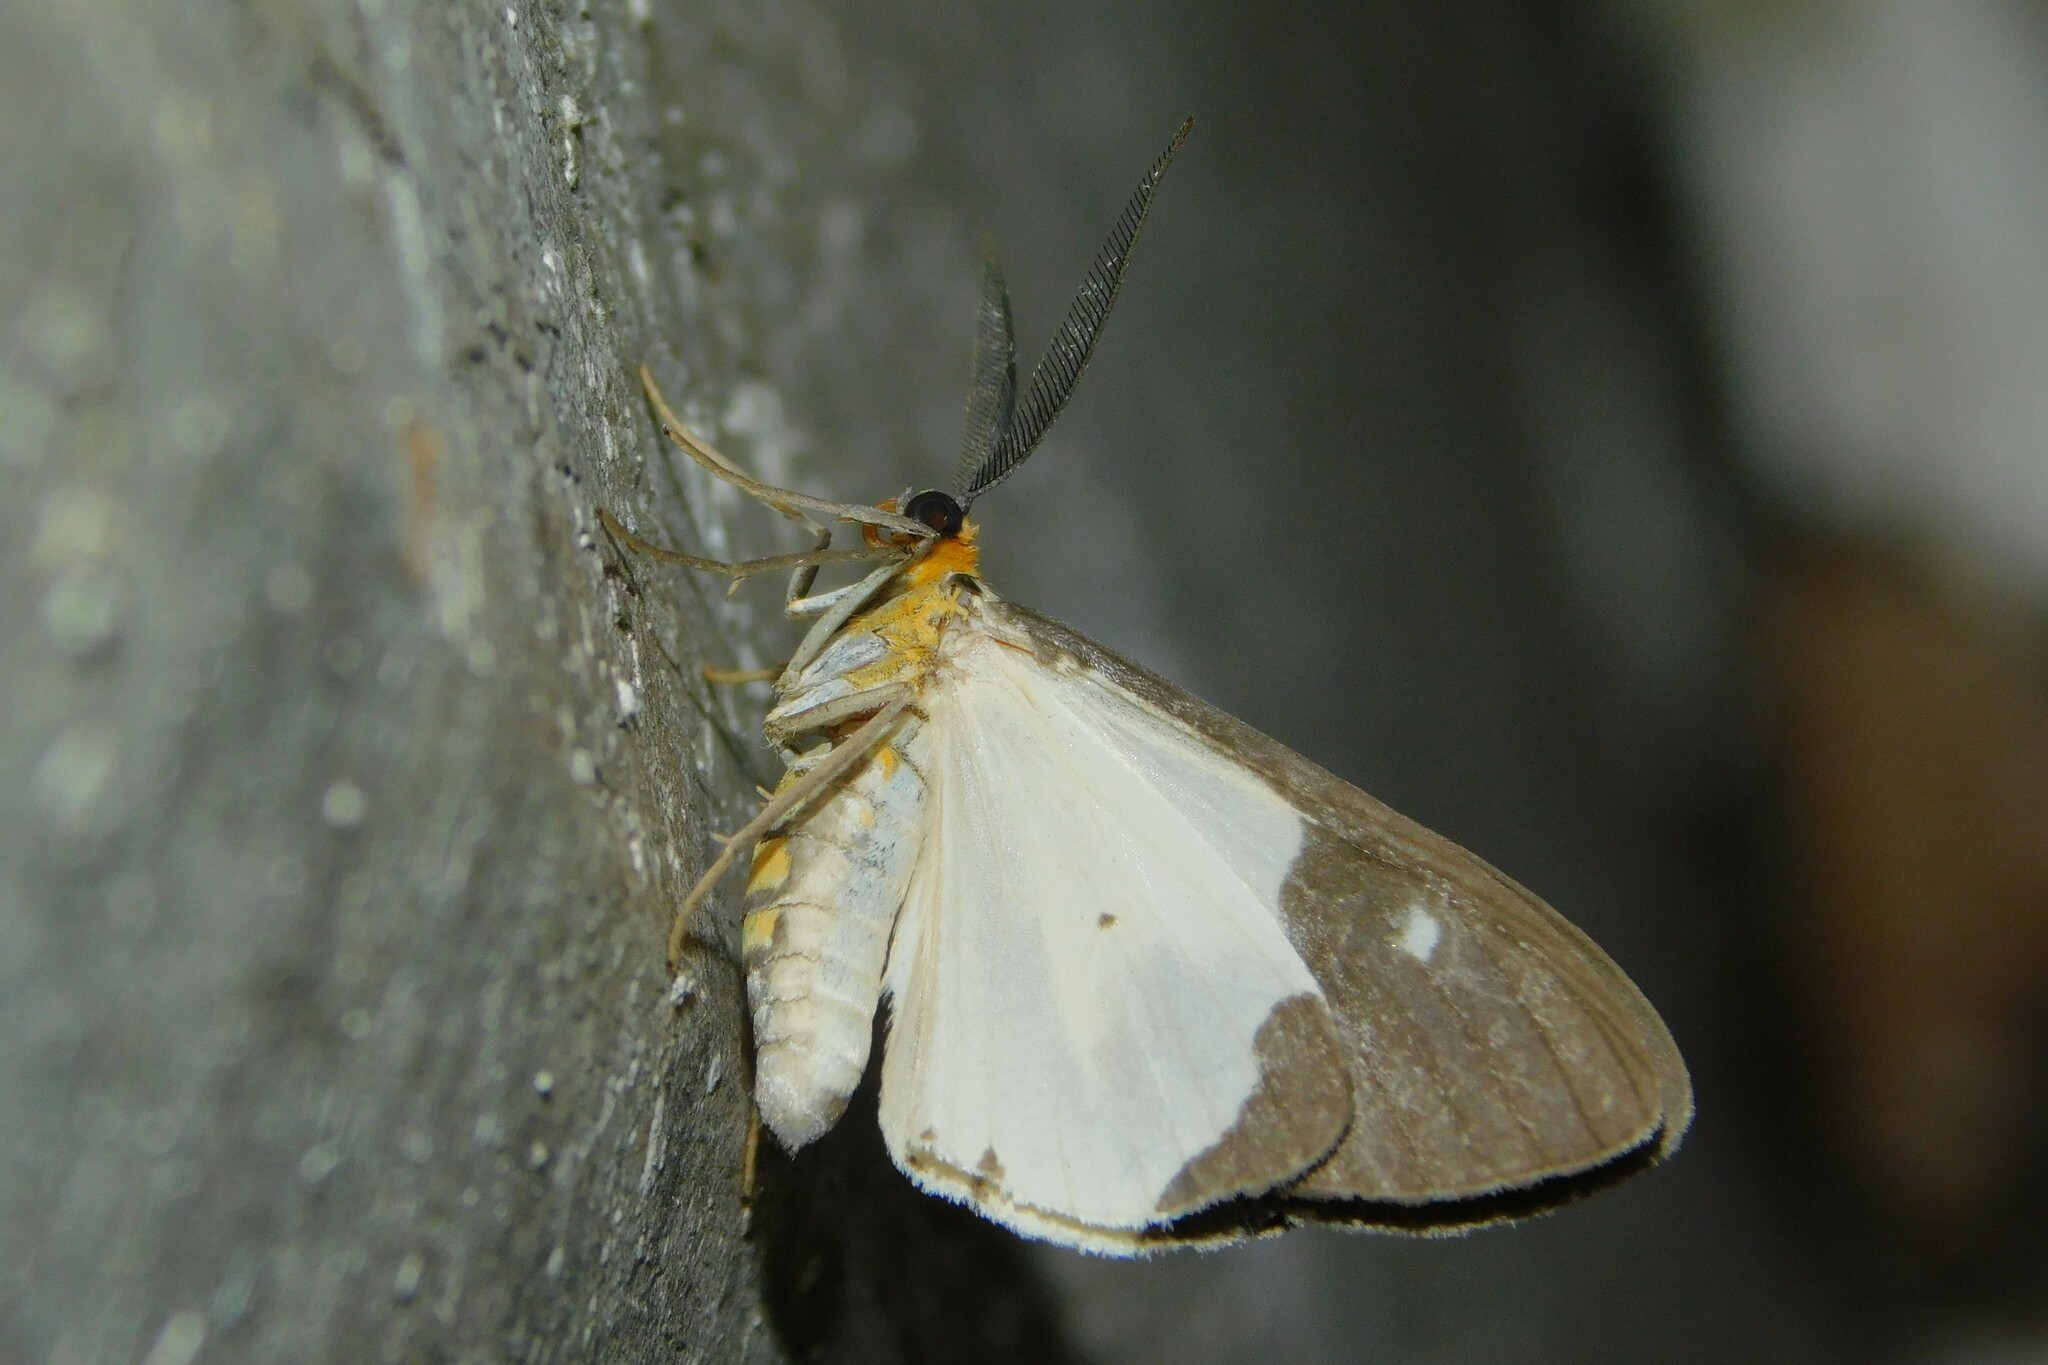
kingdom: Animalia
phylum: Arthropoda
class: Insecta
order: Lepidoptera
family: Geometridae
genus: Terina
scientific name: Terina doleris
